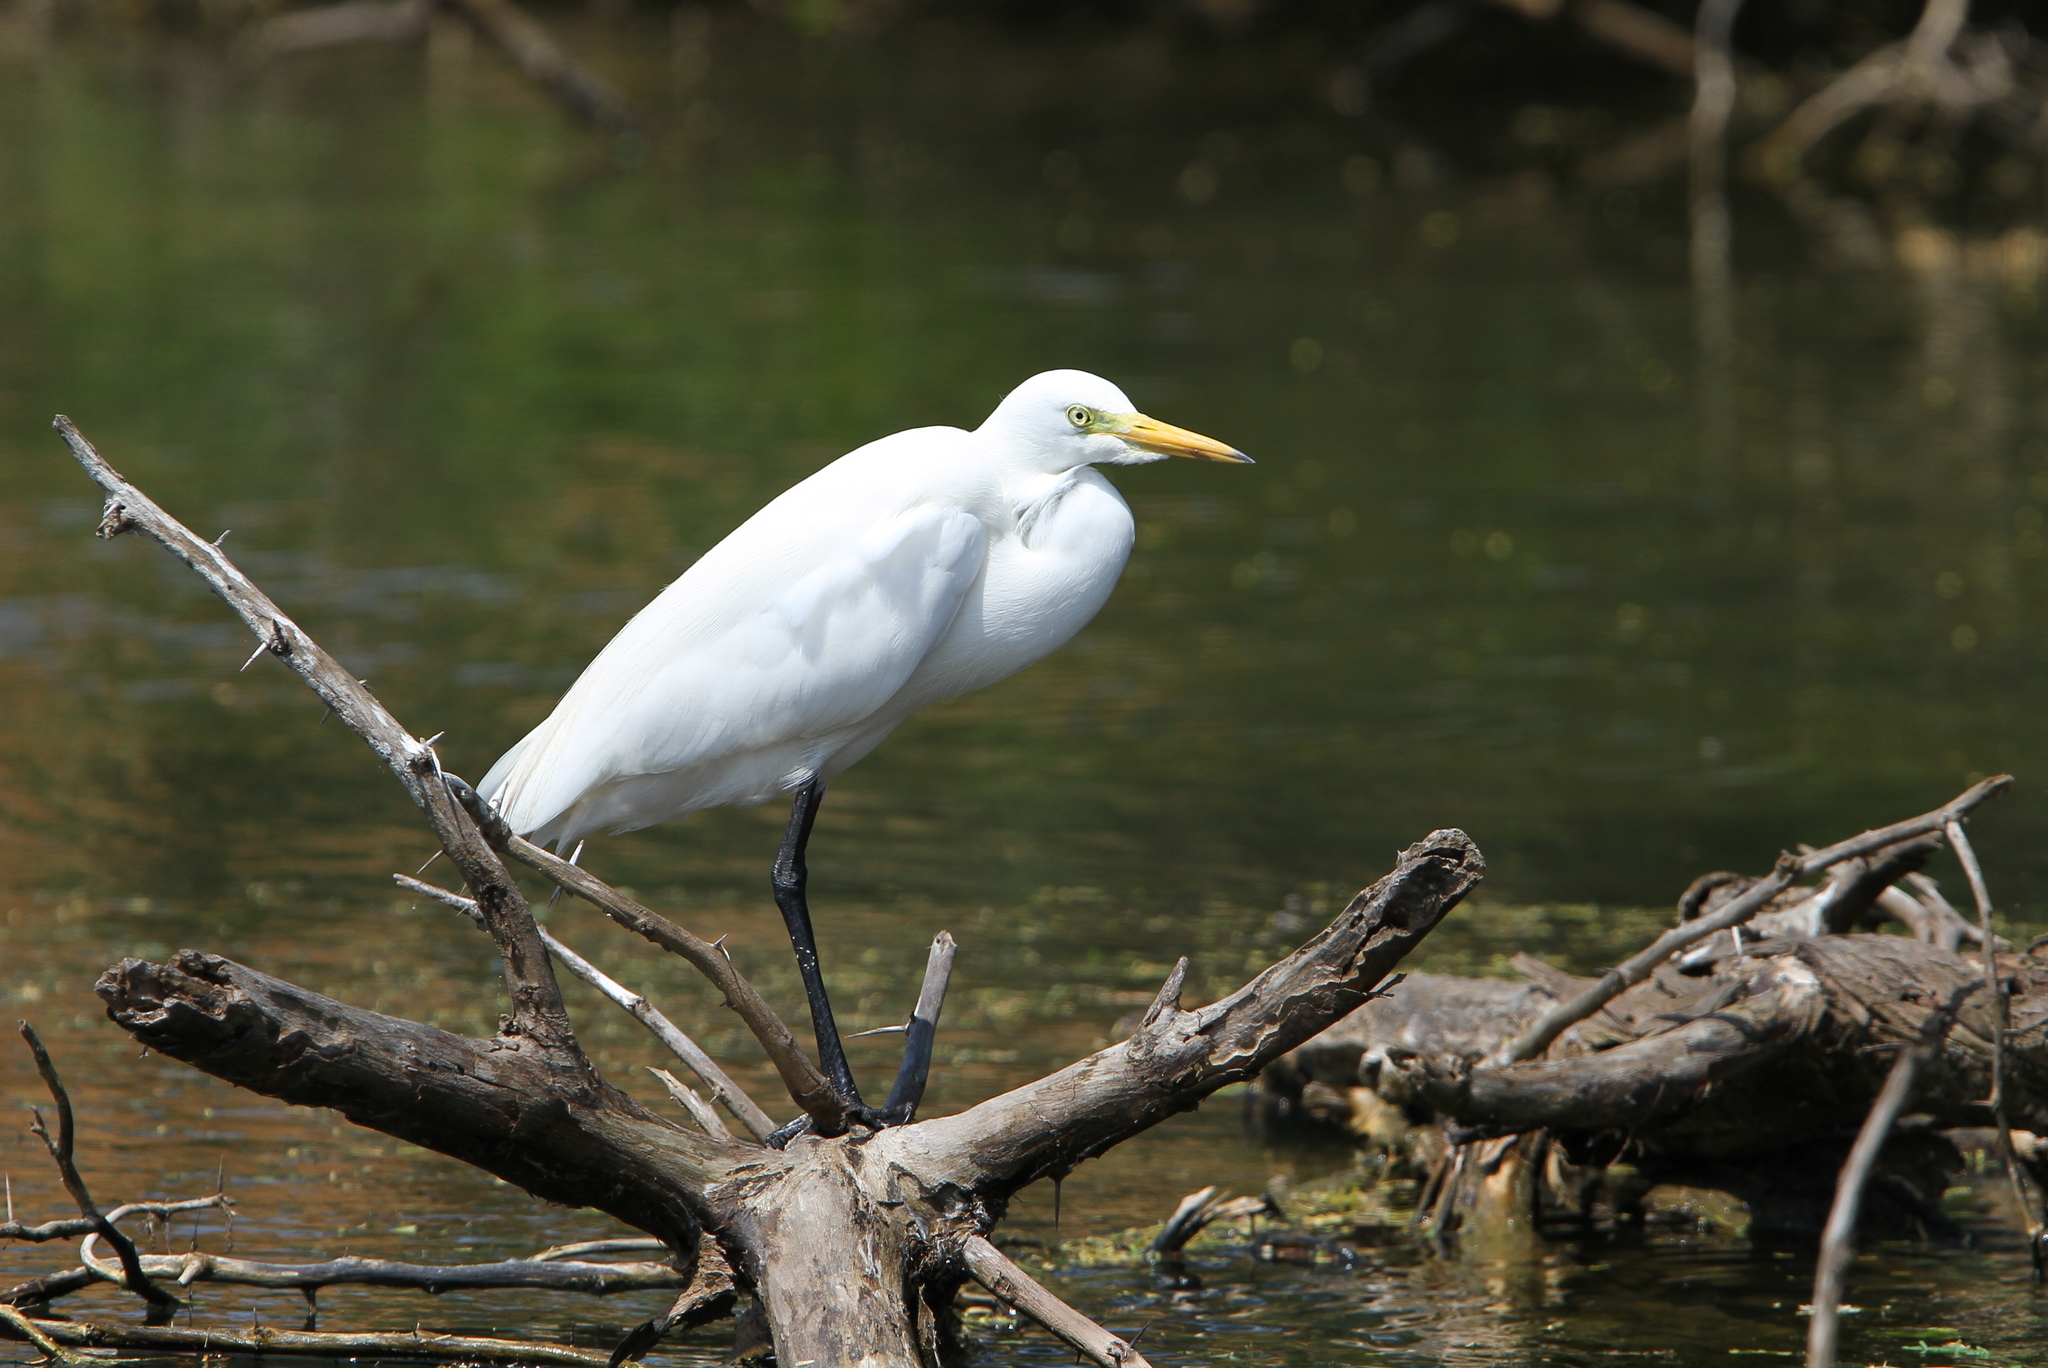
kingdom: Animalia
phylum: Chordata
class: Aves
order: Pelecaniformes
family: Ardeidae
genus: Egretta
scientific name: Egretta intermedia
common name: Intermediate egret
